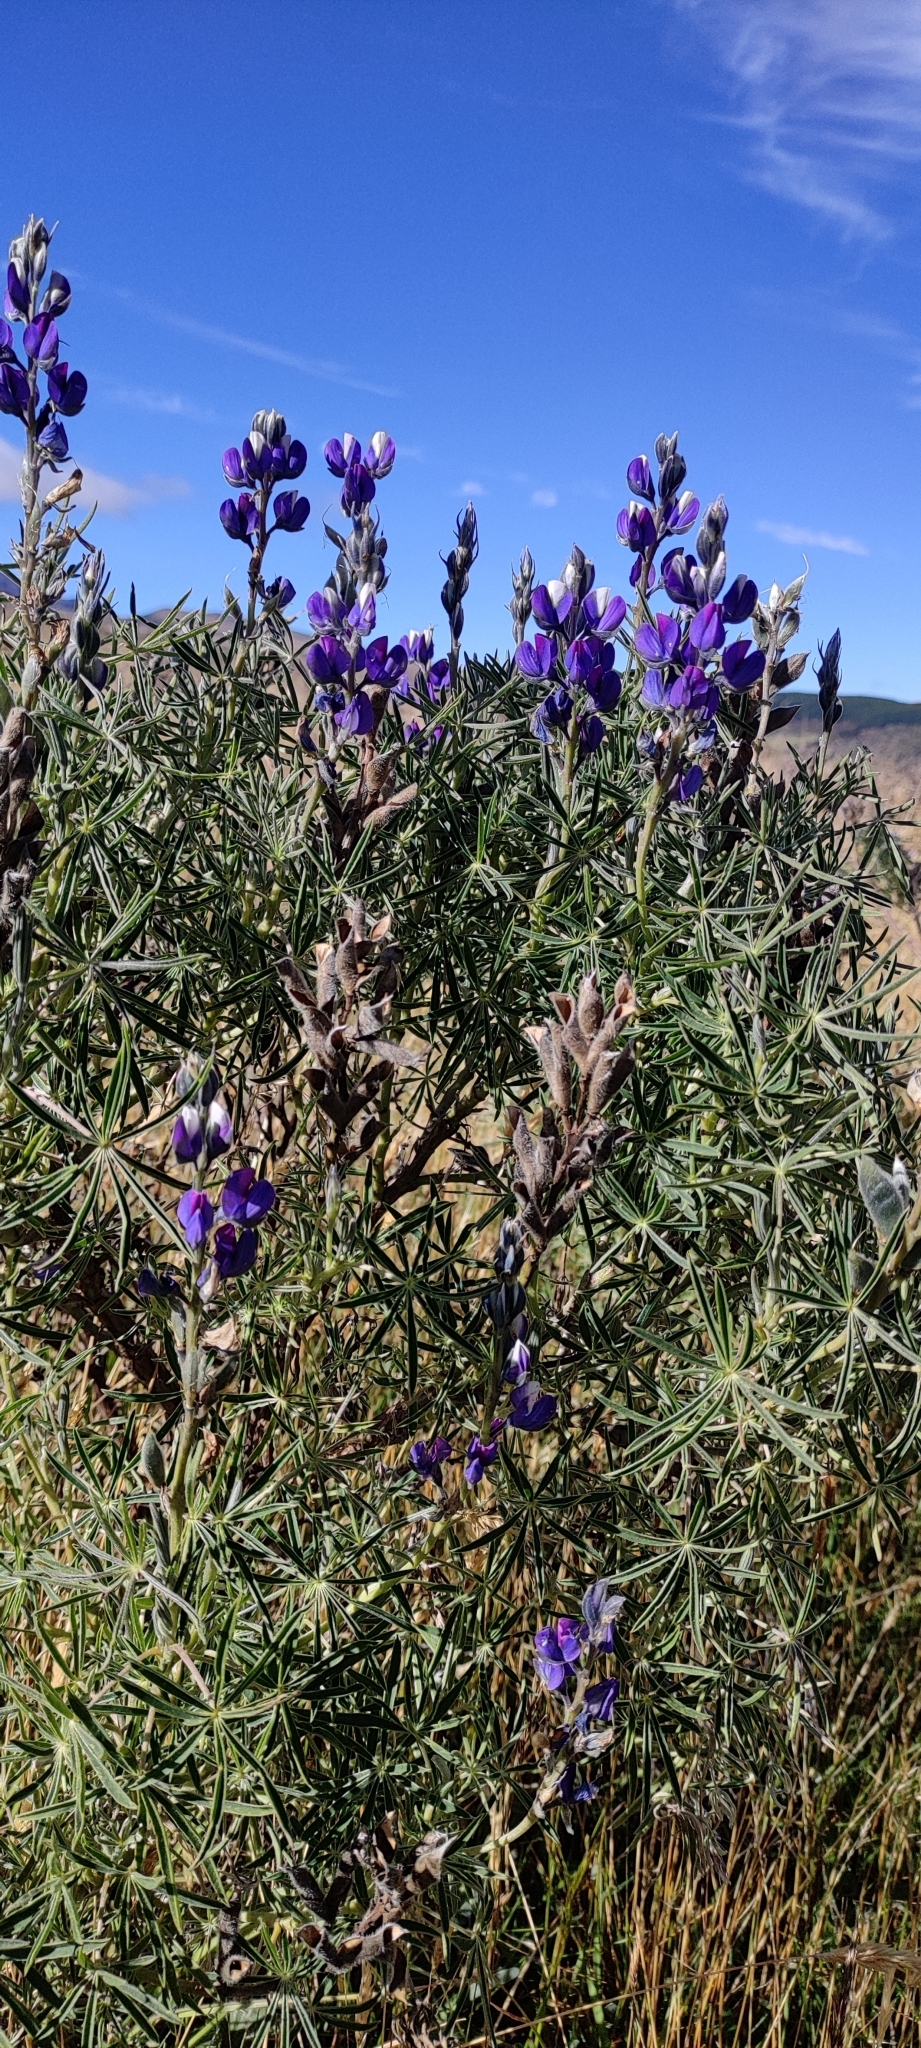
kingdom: Plantae
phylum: Tracheophyta
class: Magnoliopsida
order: Fabales
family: Fabaceae
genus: Lupinus
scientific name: Lupinus pubescens
